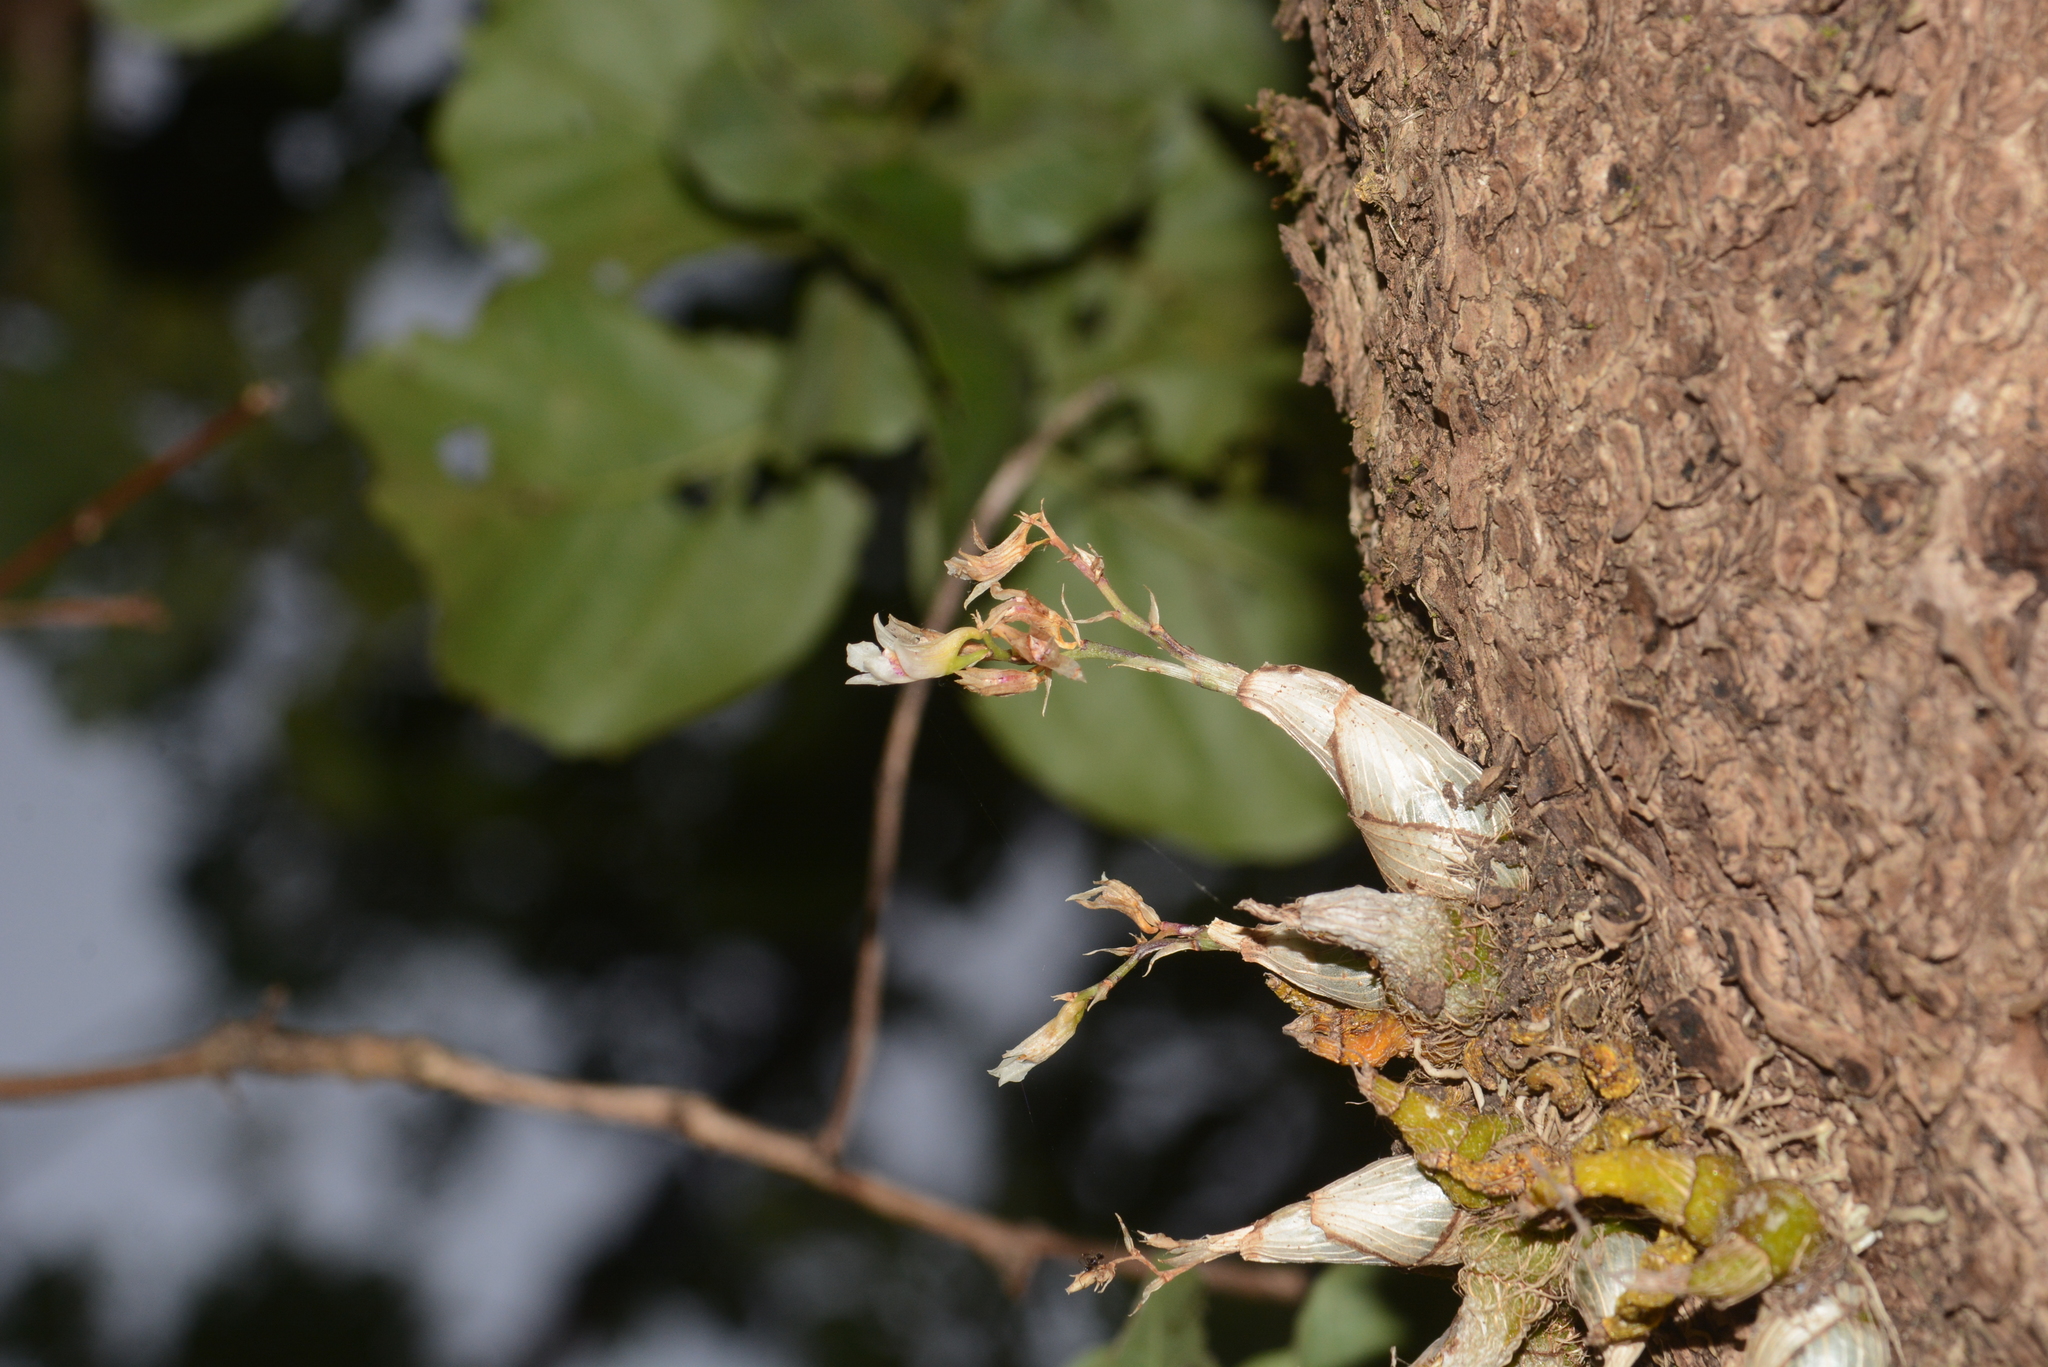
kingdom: Plantae
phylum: Tracheophyta
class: Liliopsida
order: Asparagales
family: Orchidaceae
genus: Dendrobium
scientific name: Dendrobium microbulbon
